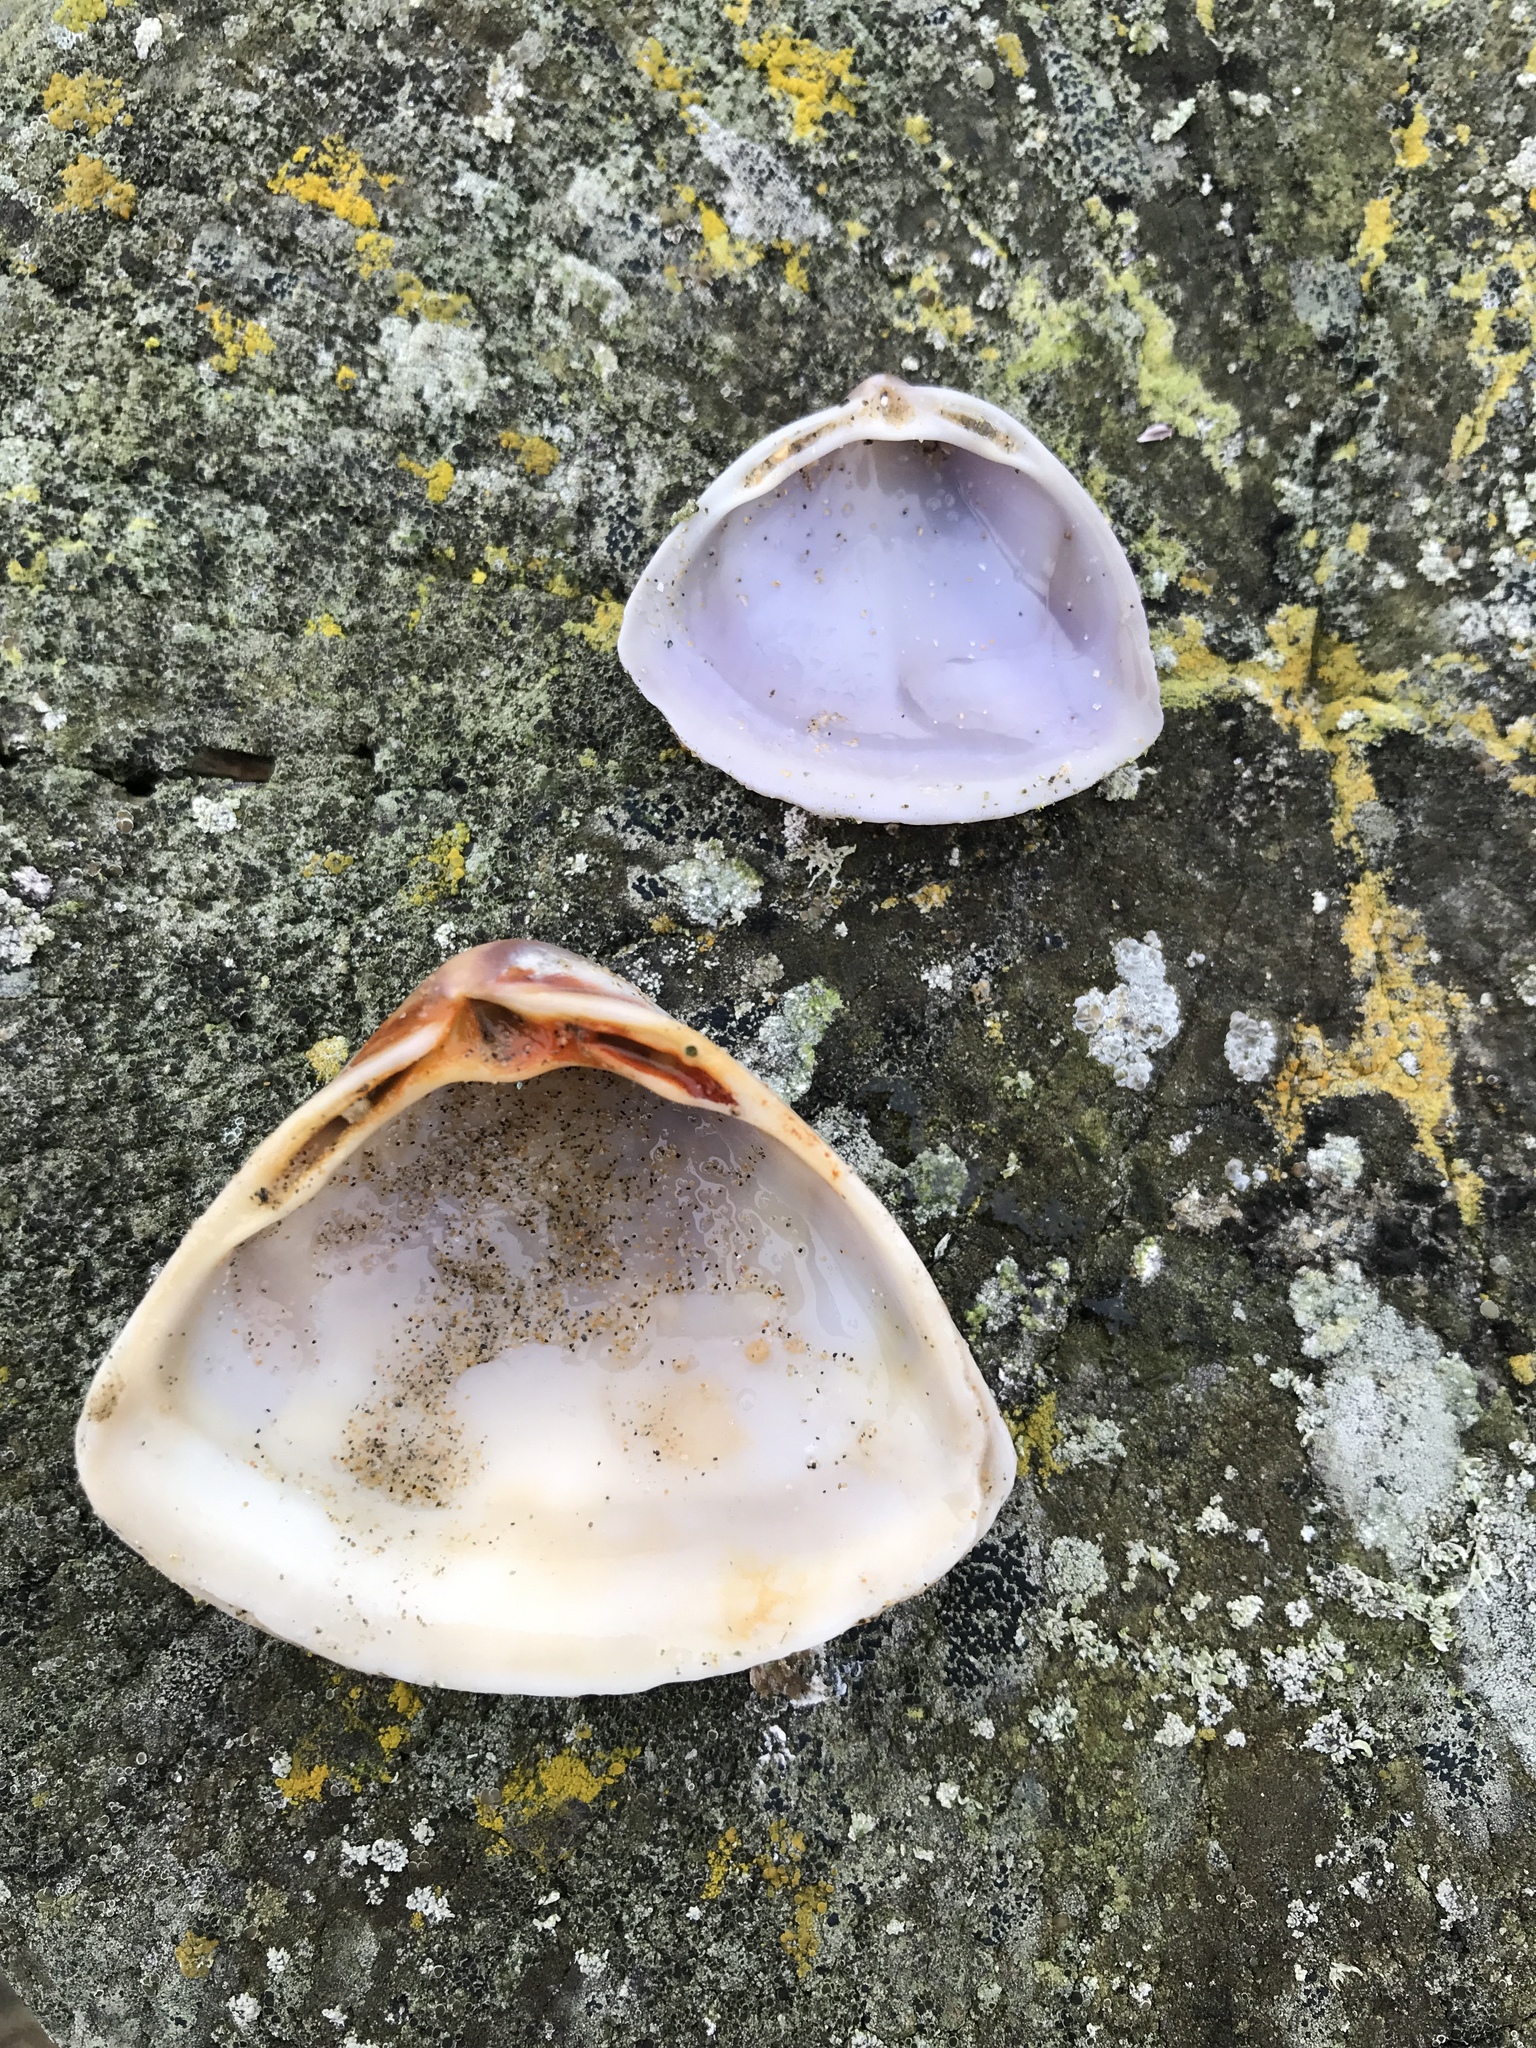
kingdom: Animalia
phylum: Mollusca
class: Bivalvia
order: Venerida
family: Mactridae
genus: Crassula
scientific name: Crassula aequilatera
